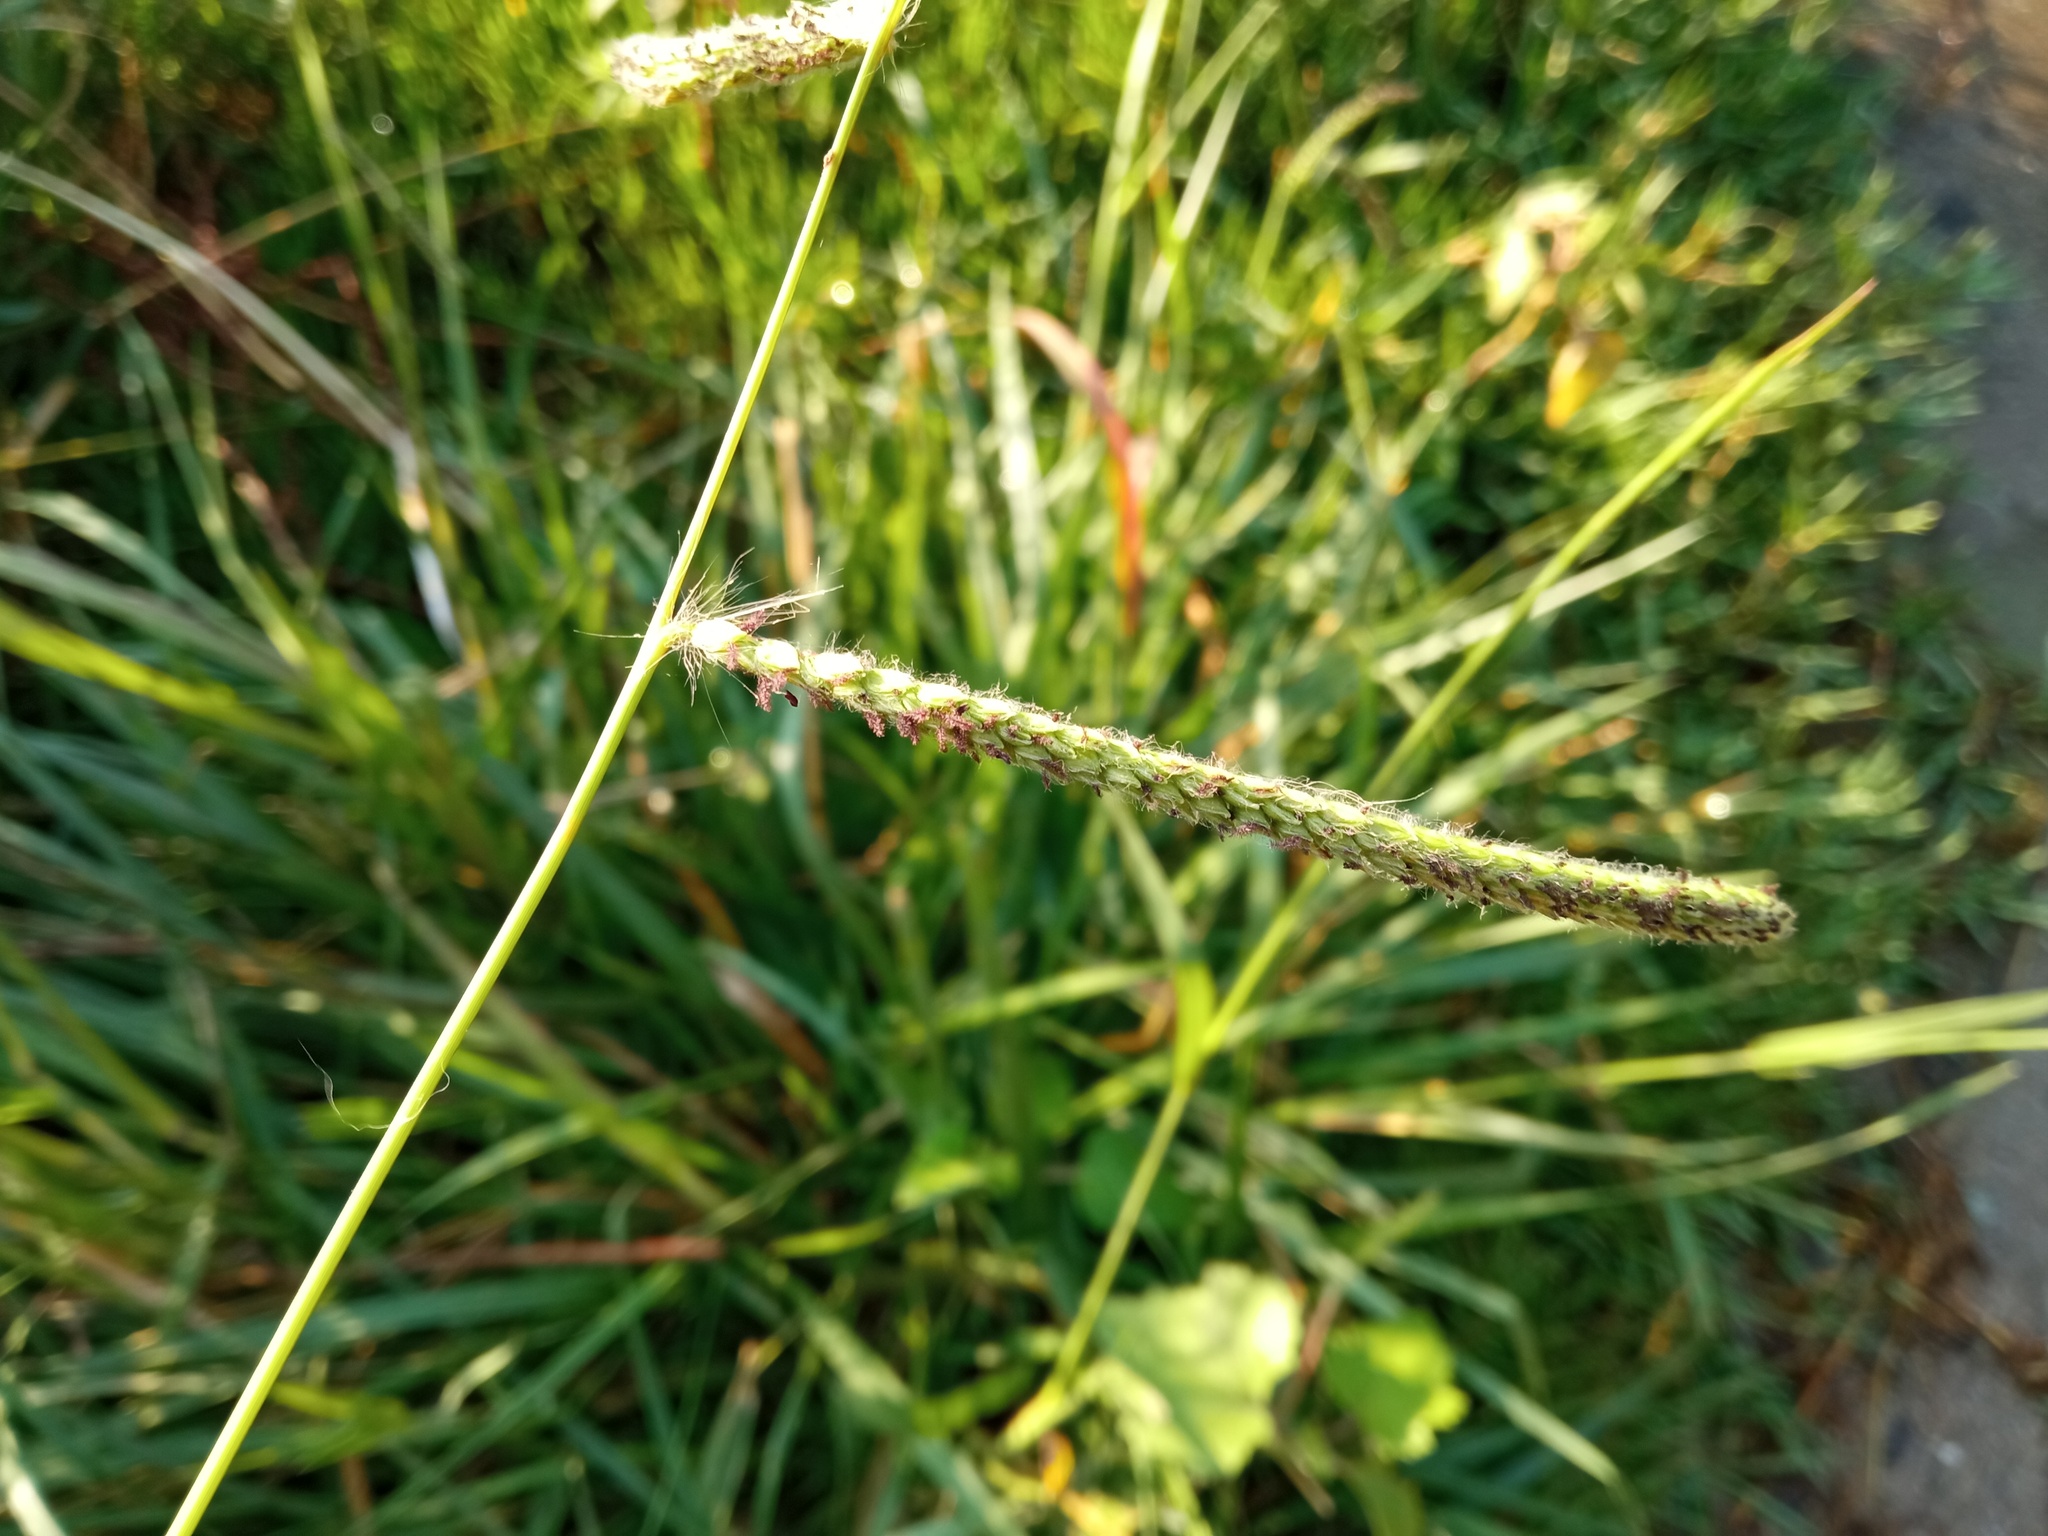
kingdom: Plantae
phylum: Tracheophyta
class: Liliopsida
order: Poales
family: Poaceae
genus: Paspalum
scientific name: Paspalum dilatatum
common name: Dallisgrass
